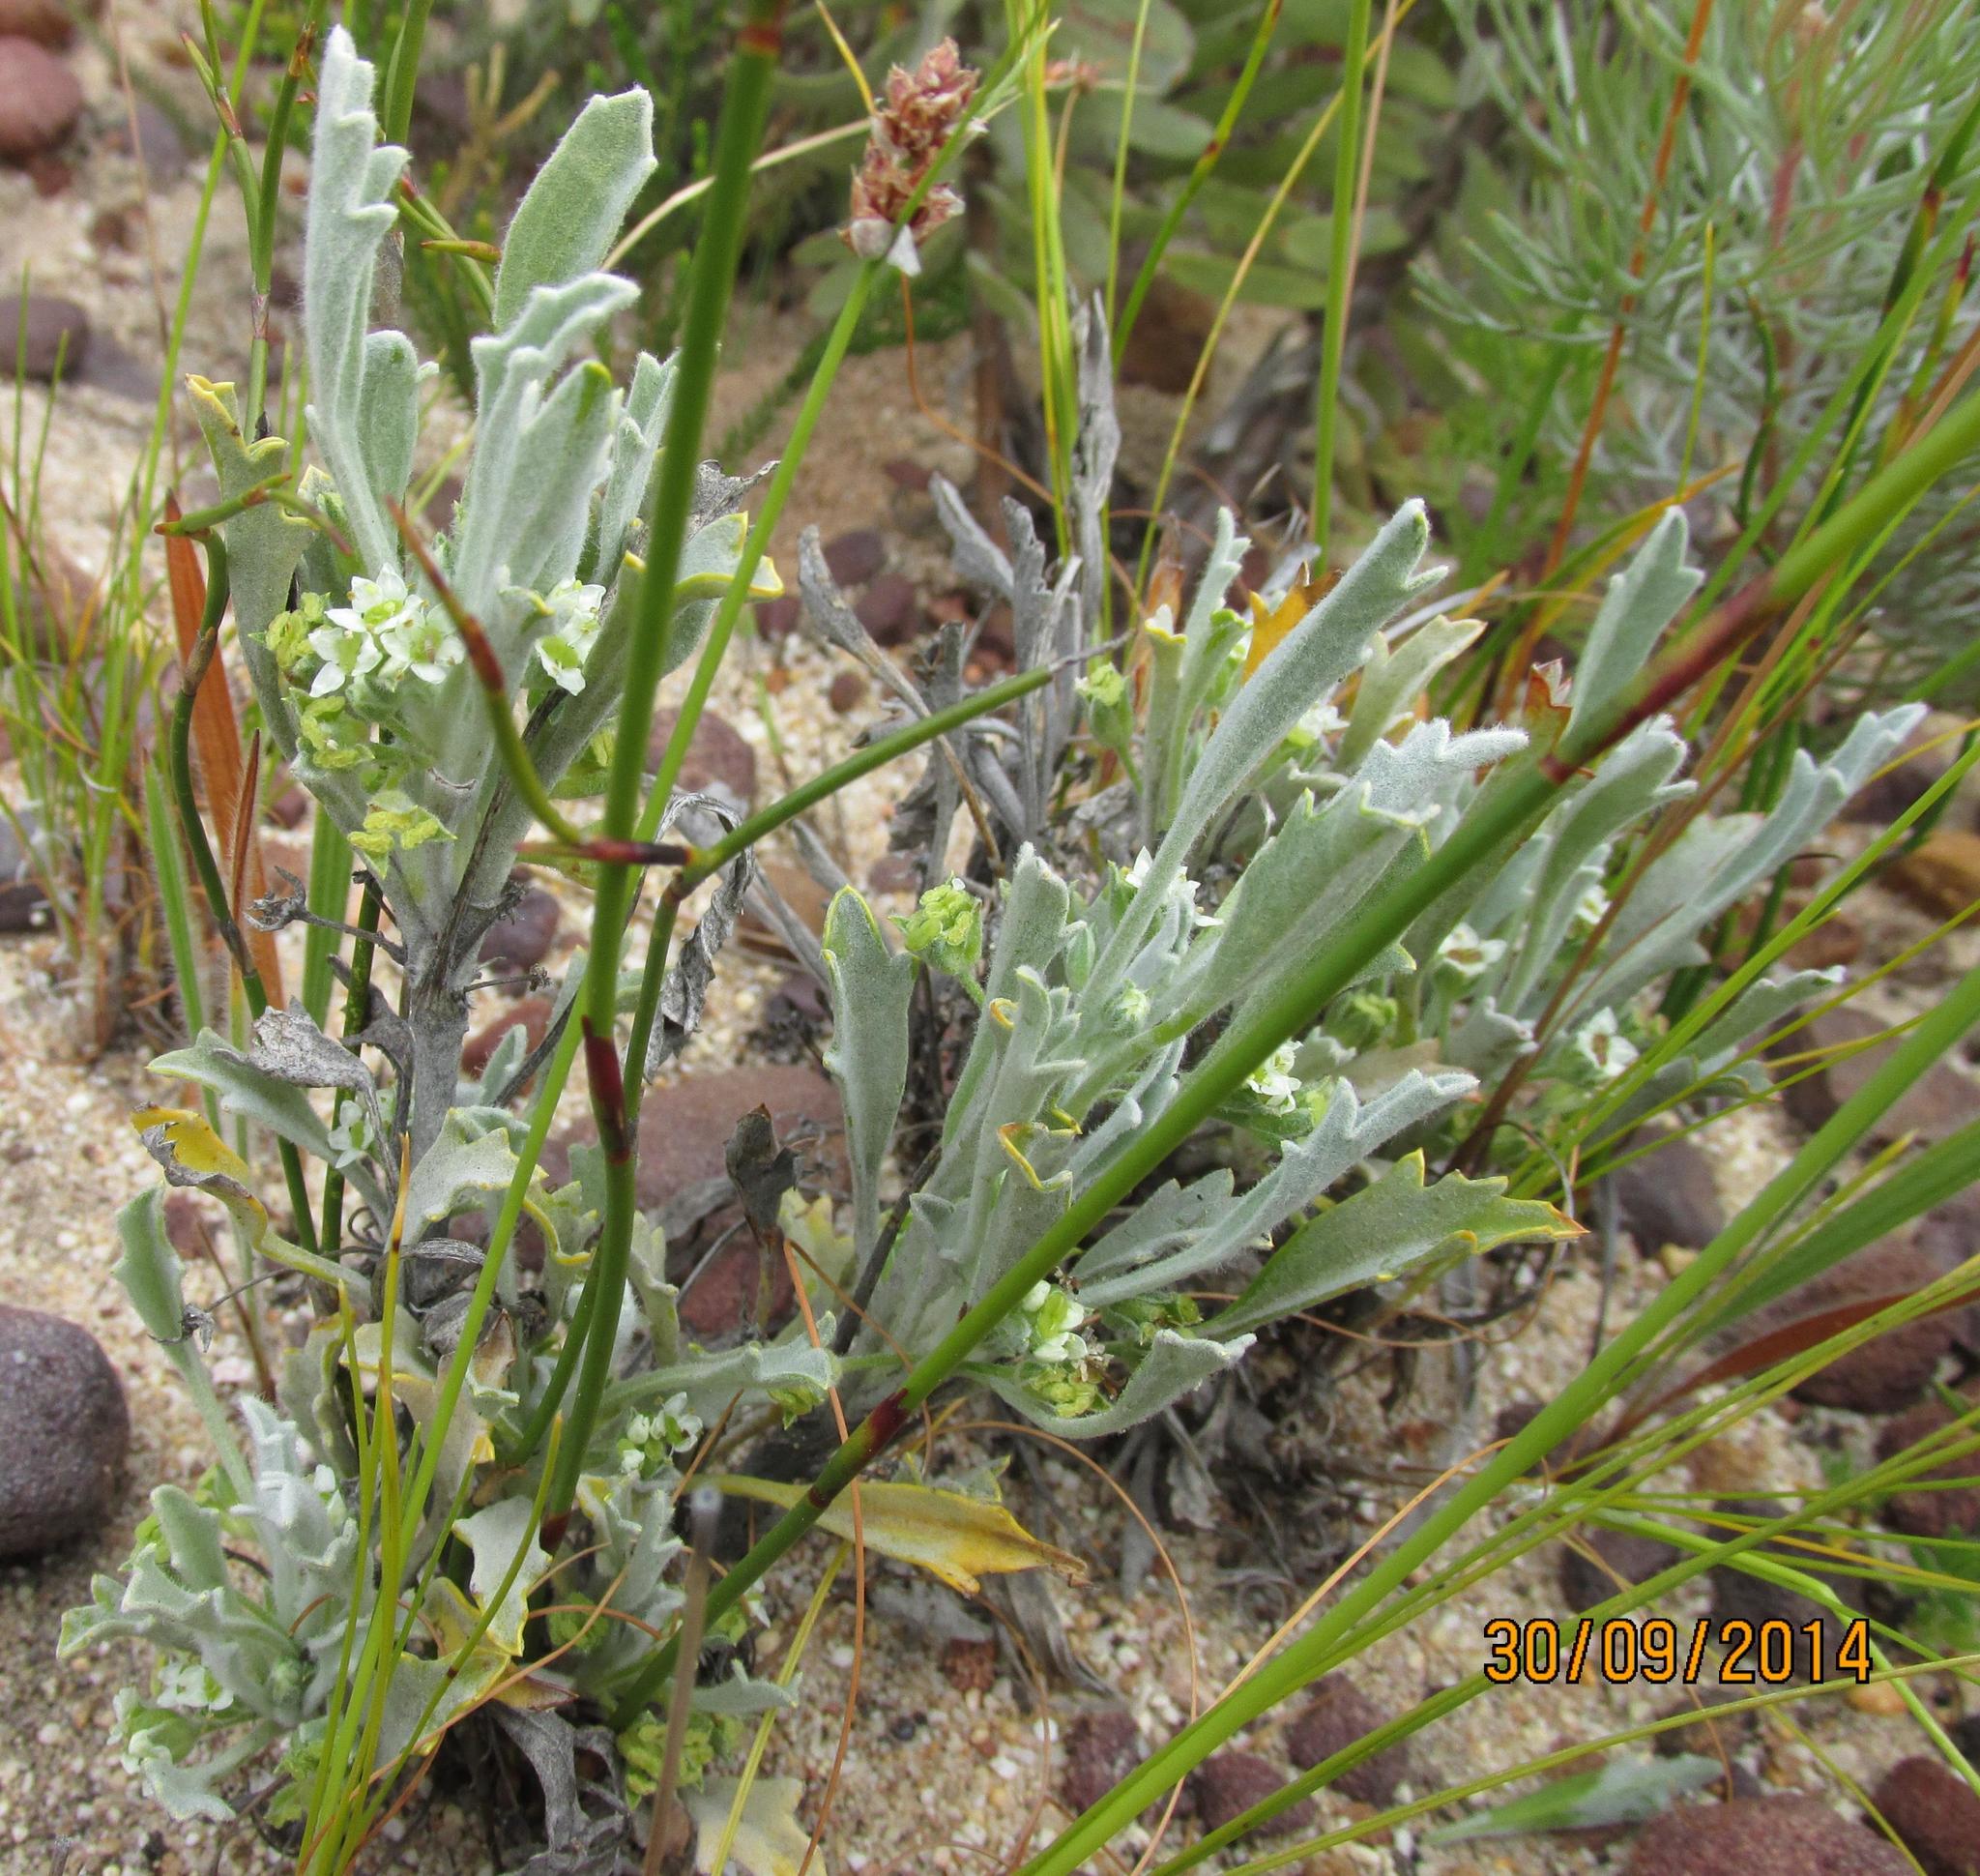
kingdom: Plantae
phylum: Tracheophyta
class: Magnoliopsida
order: Apiales
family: Apiaceae
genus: Centella
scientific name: Centella annua
